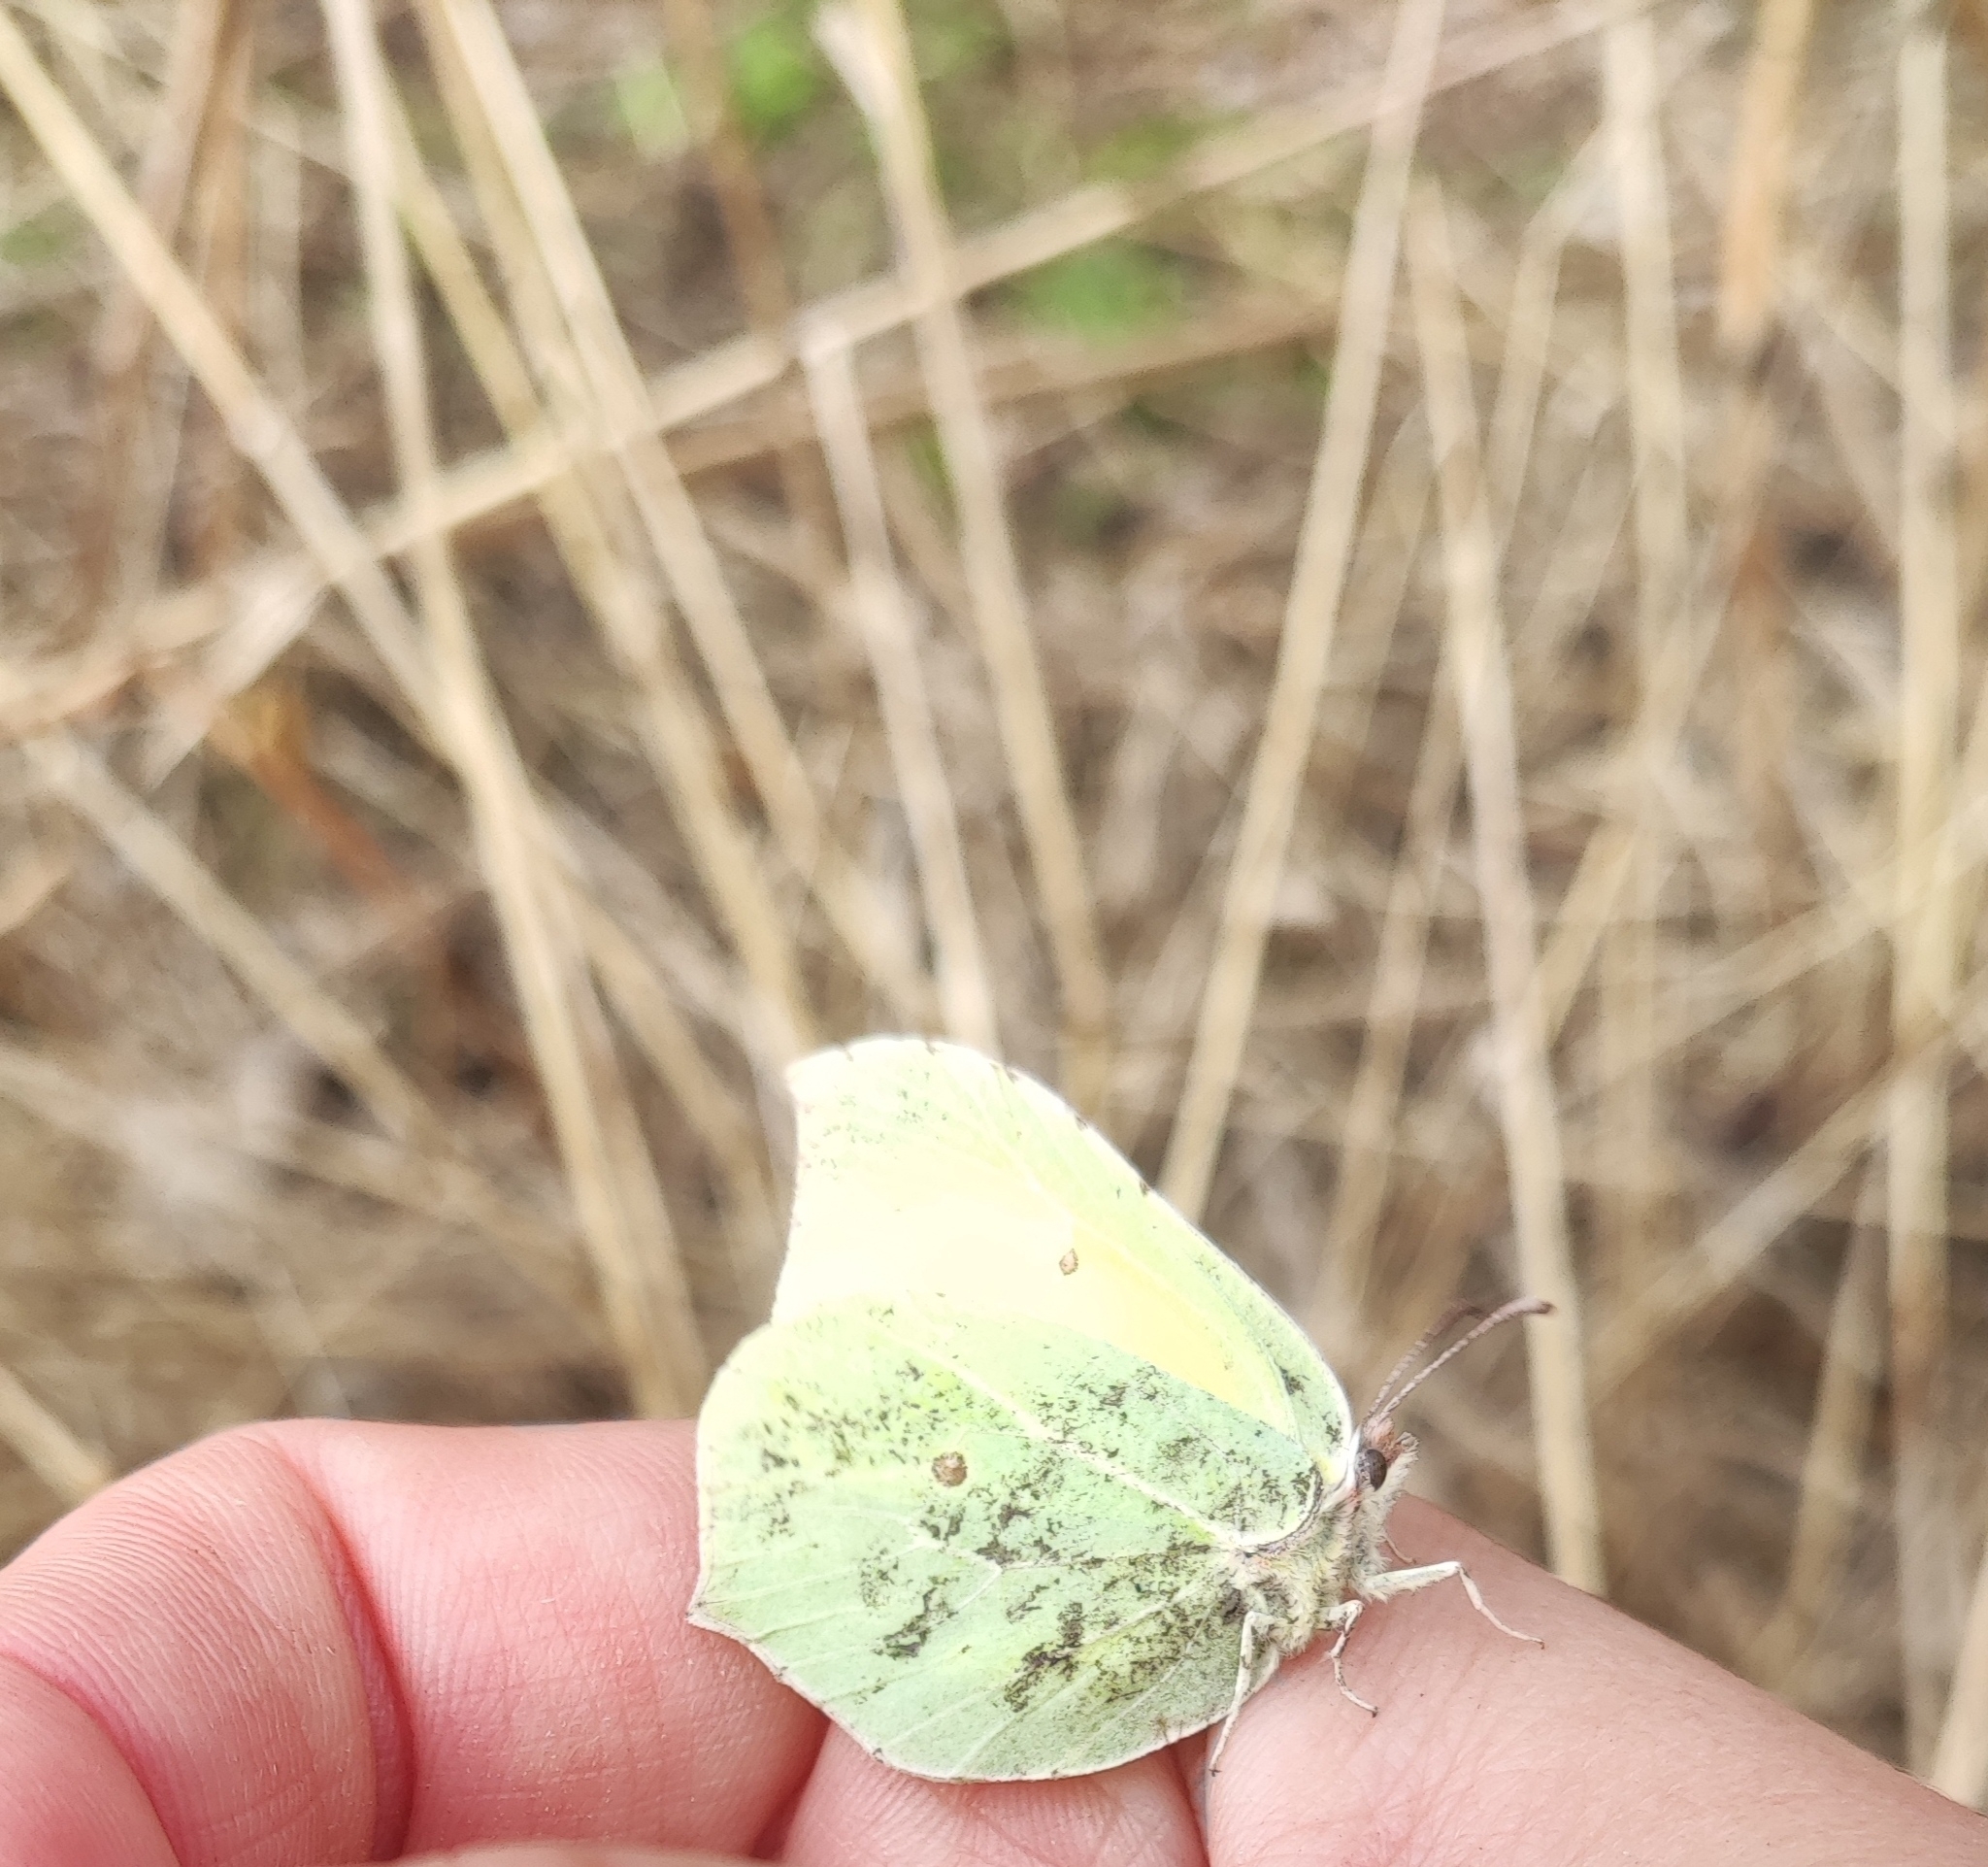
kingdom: Animalia
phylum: Arthropoda
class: Insecta
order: Lepidoptera
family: Pieridae
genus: Gonepteryx
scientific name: Gonepteryx rhamni
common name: Brimstone
